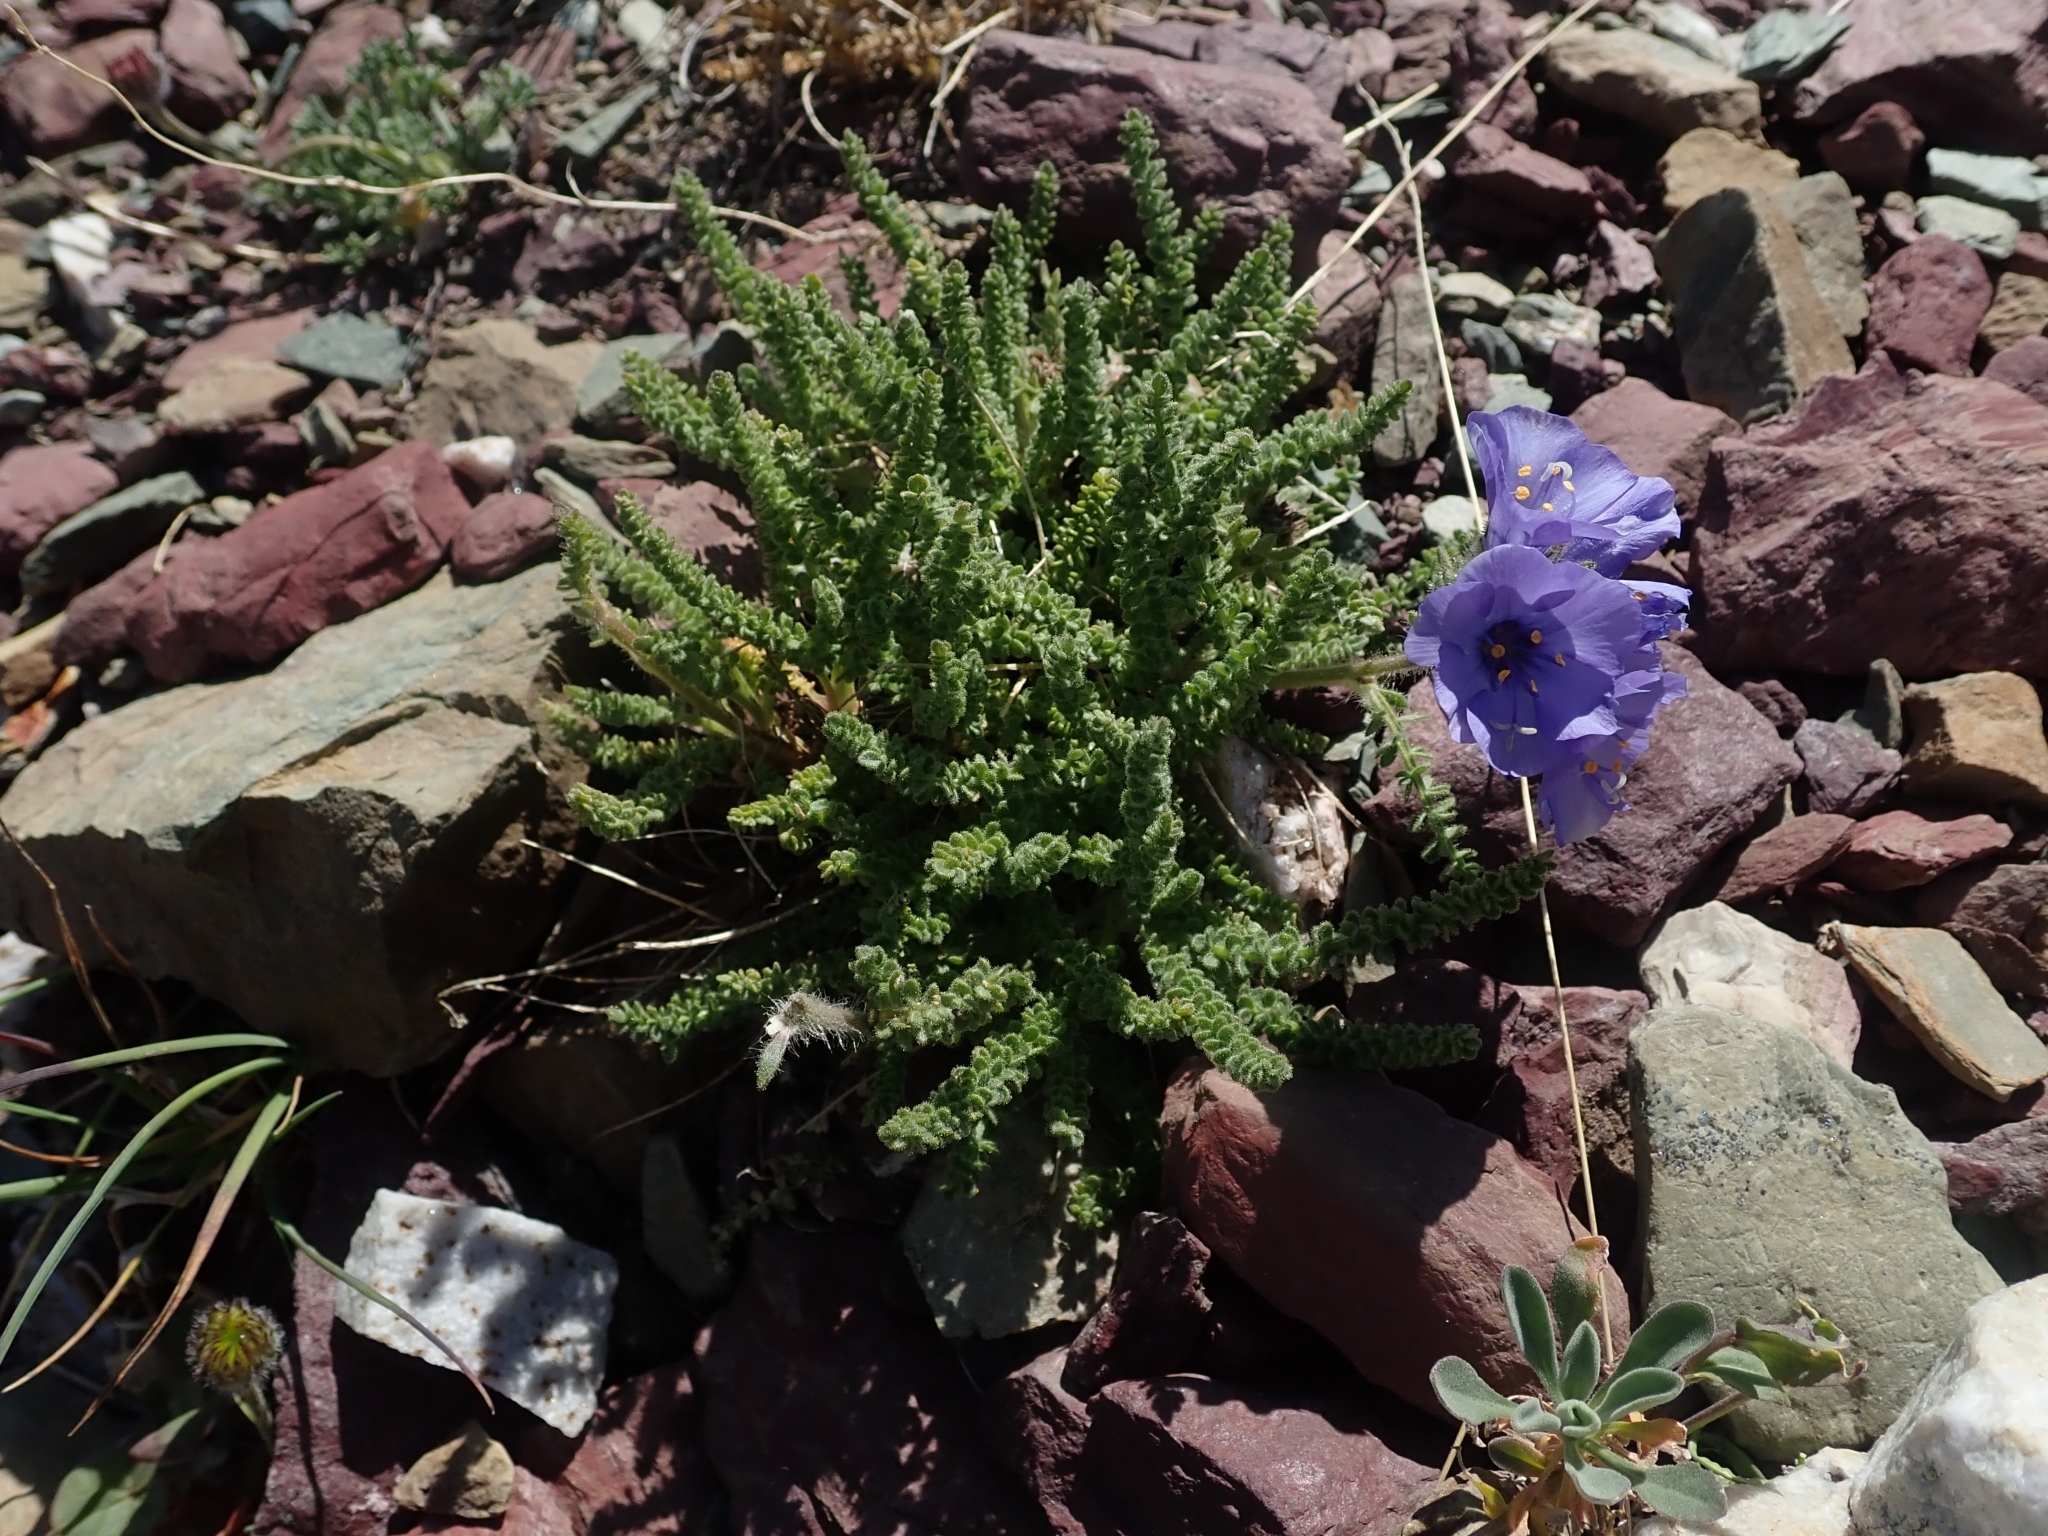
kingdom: Plantae
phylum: Tracheophyta
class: Magnoliopsida
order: Ericales
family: Polemoniaceae
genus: Polemonium
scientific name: Polemonium viscosum
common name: Skunk jacob's-ladder
